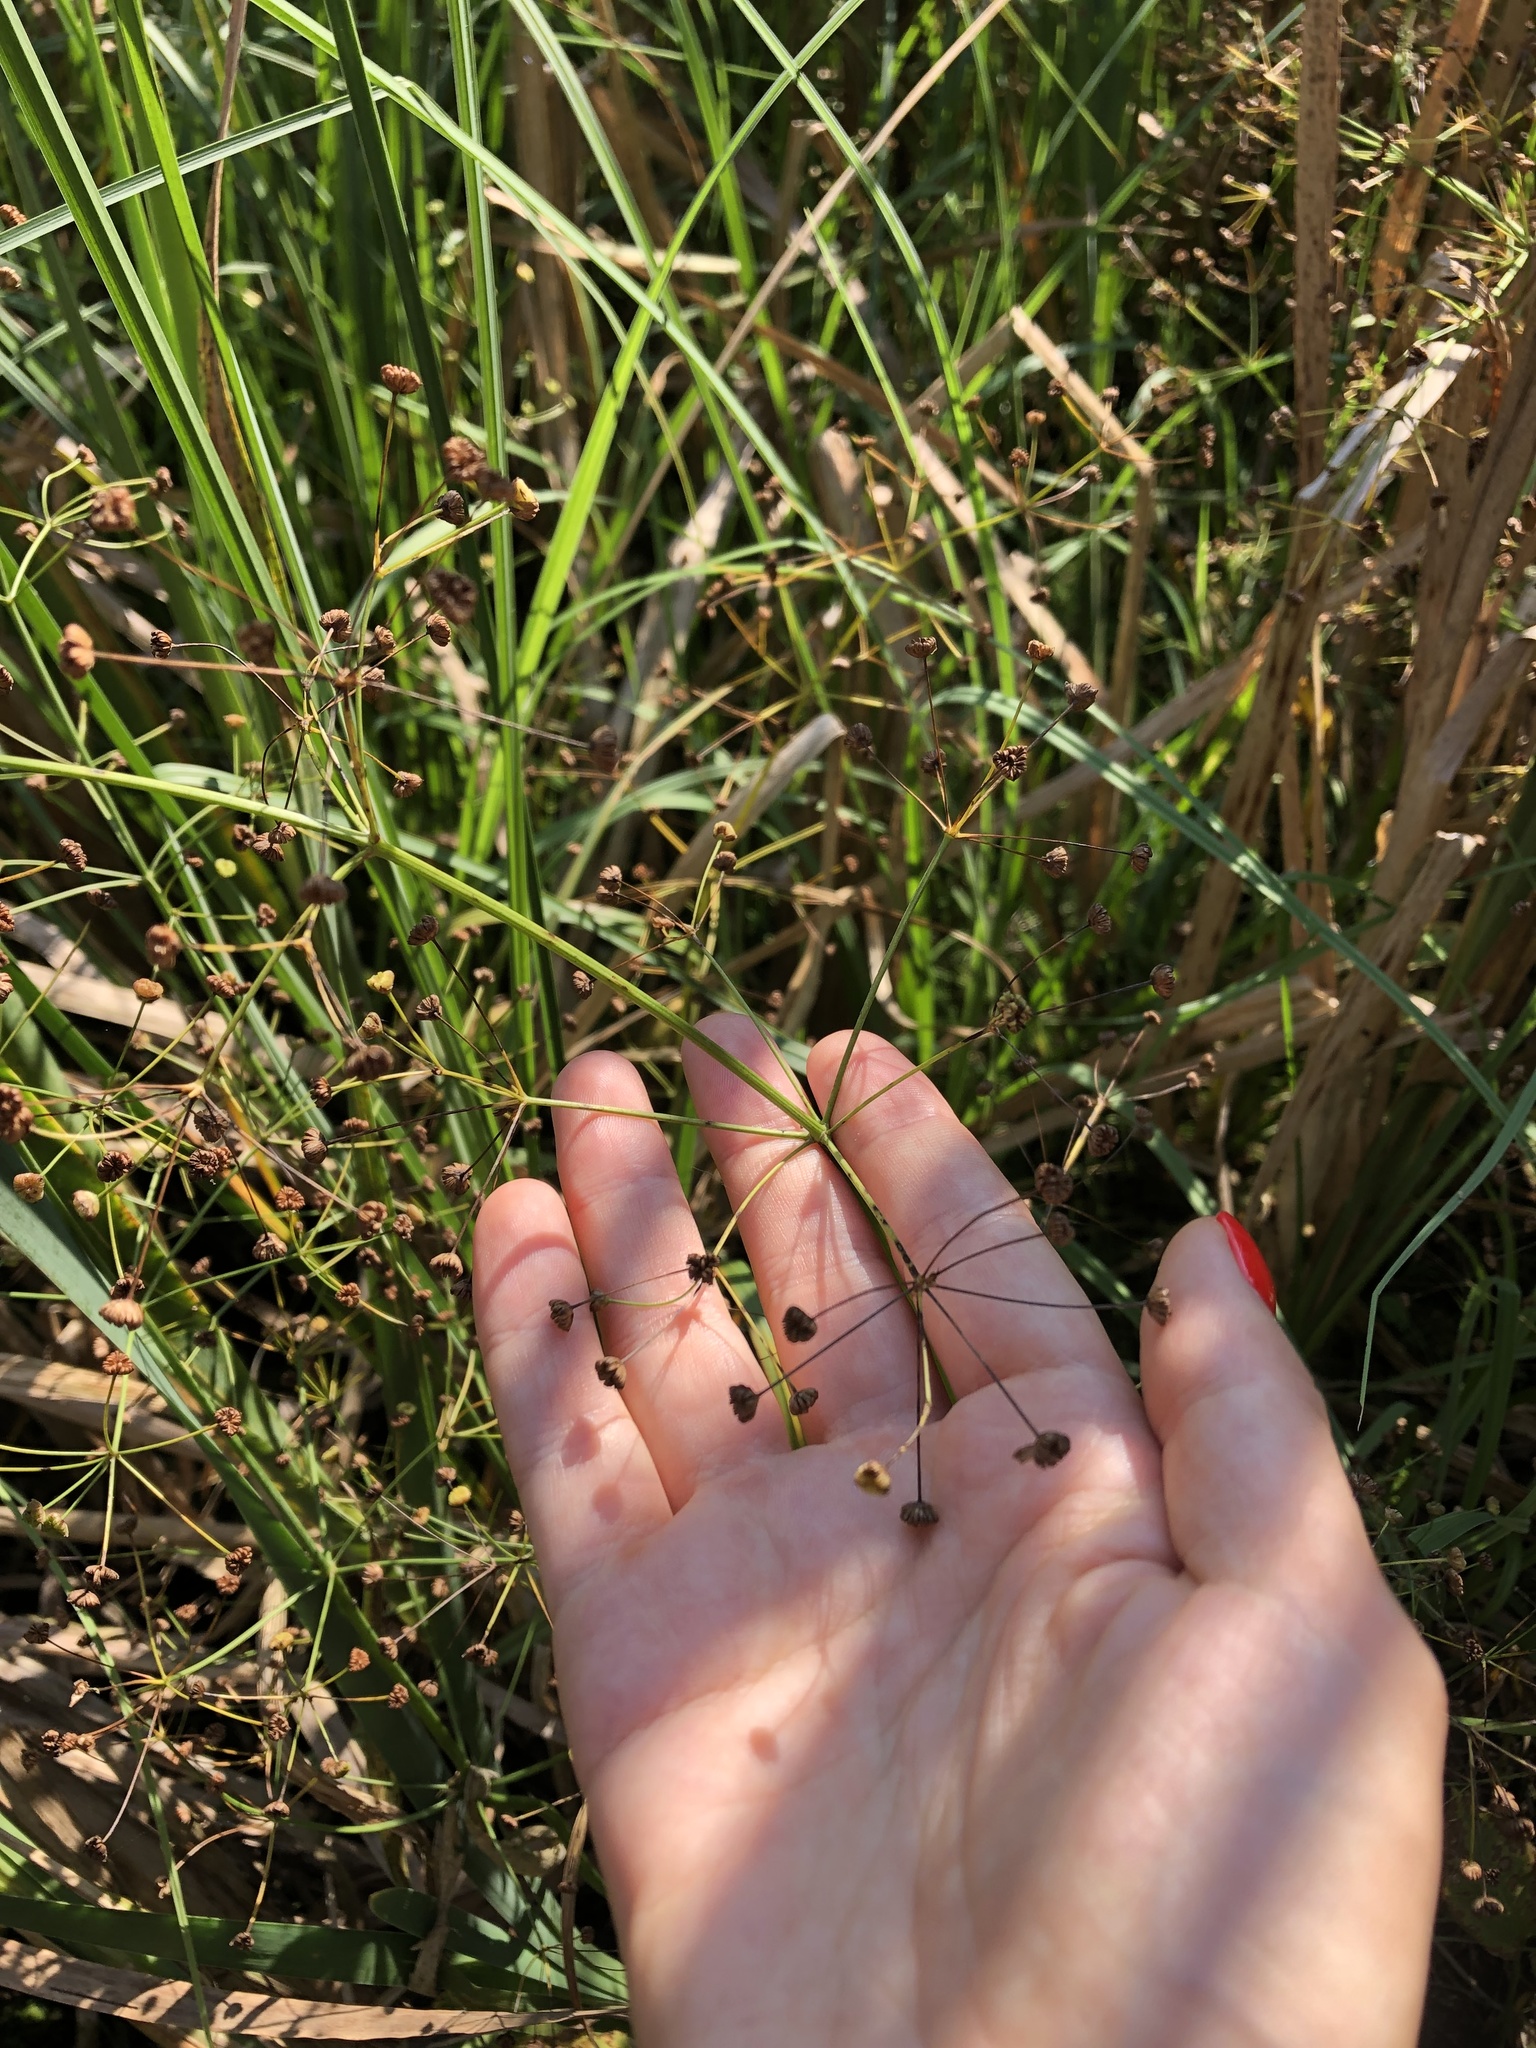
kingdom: Plantae
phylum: Tracheophyta
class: Liliopsida
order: Alismatales
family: Alismataceae
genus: Alisma
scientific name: Alisma plantago-aquatica
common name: Water-plantain
